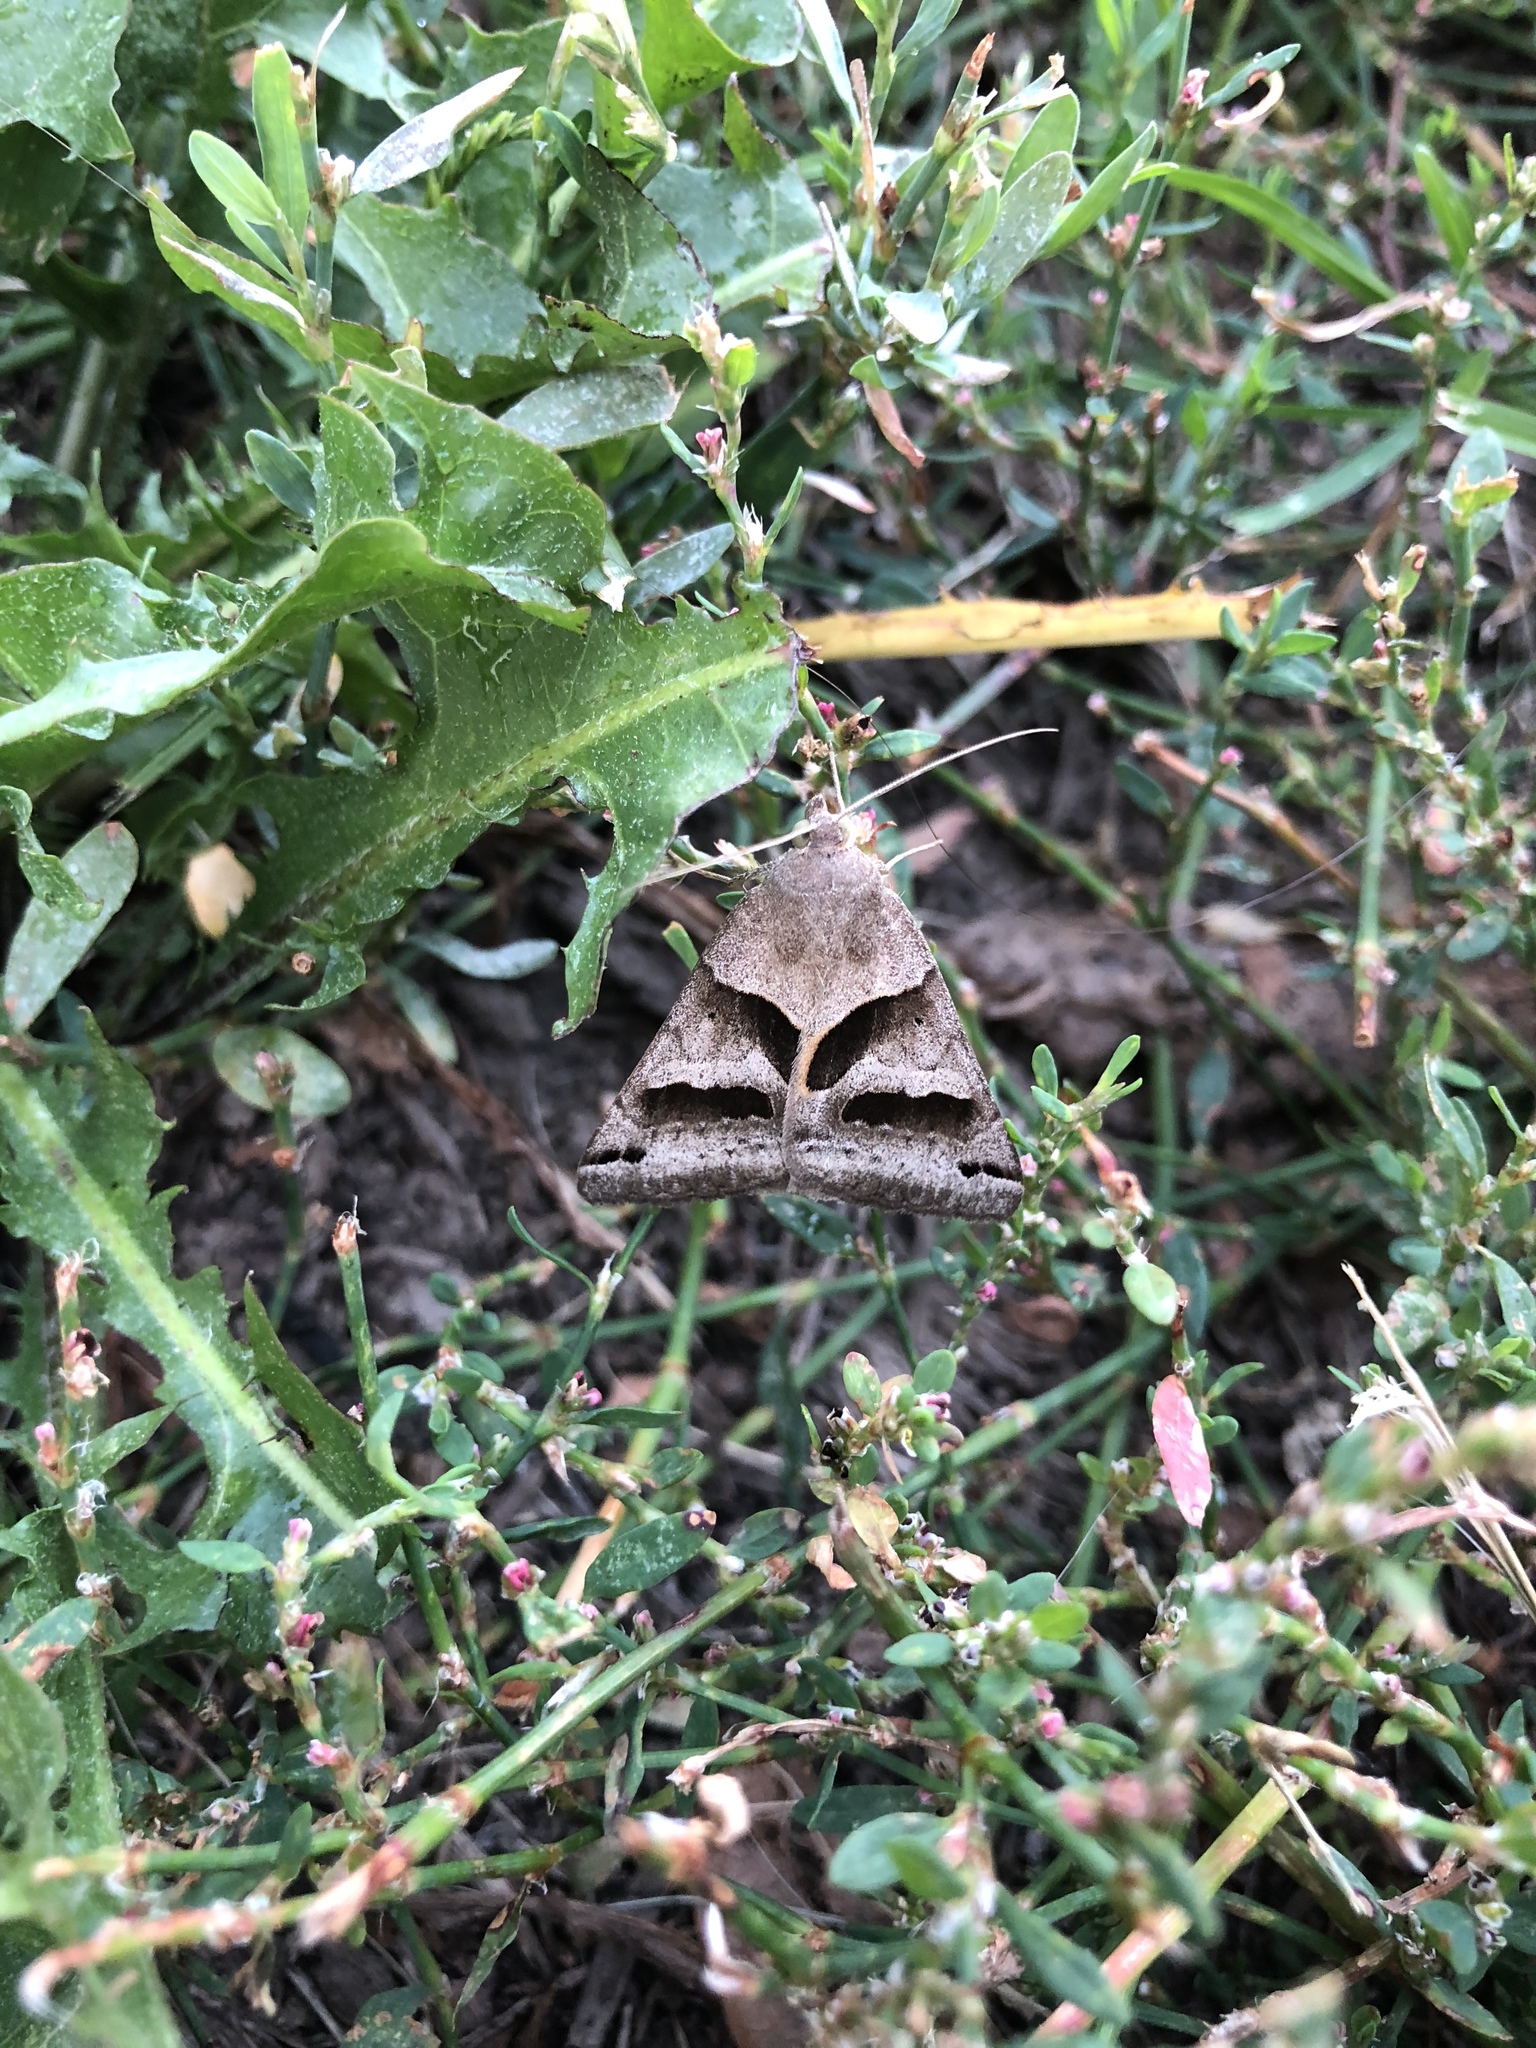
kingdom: Animalia
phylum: Arthropoda
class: Insecta
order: Lepidoptera
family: Erebidae
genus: Caenurgina
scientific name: Caenurgina erechtea
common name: Forage looper moth
